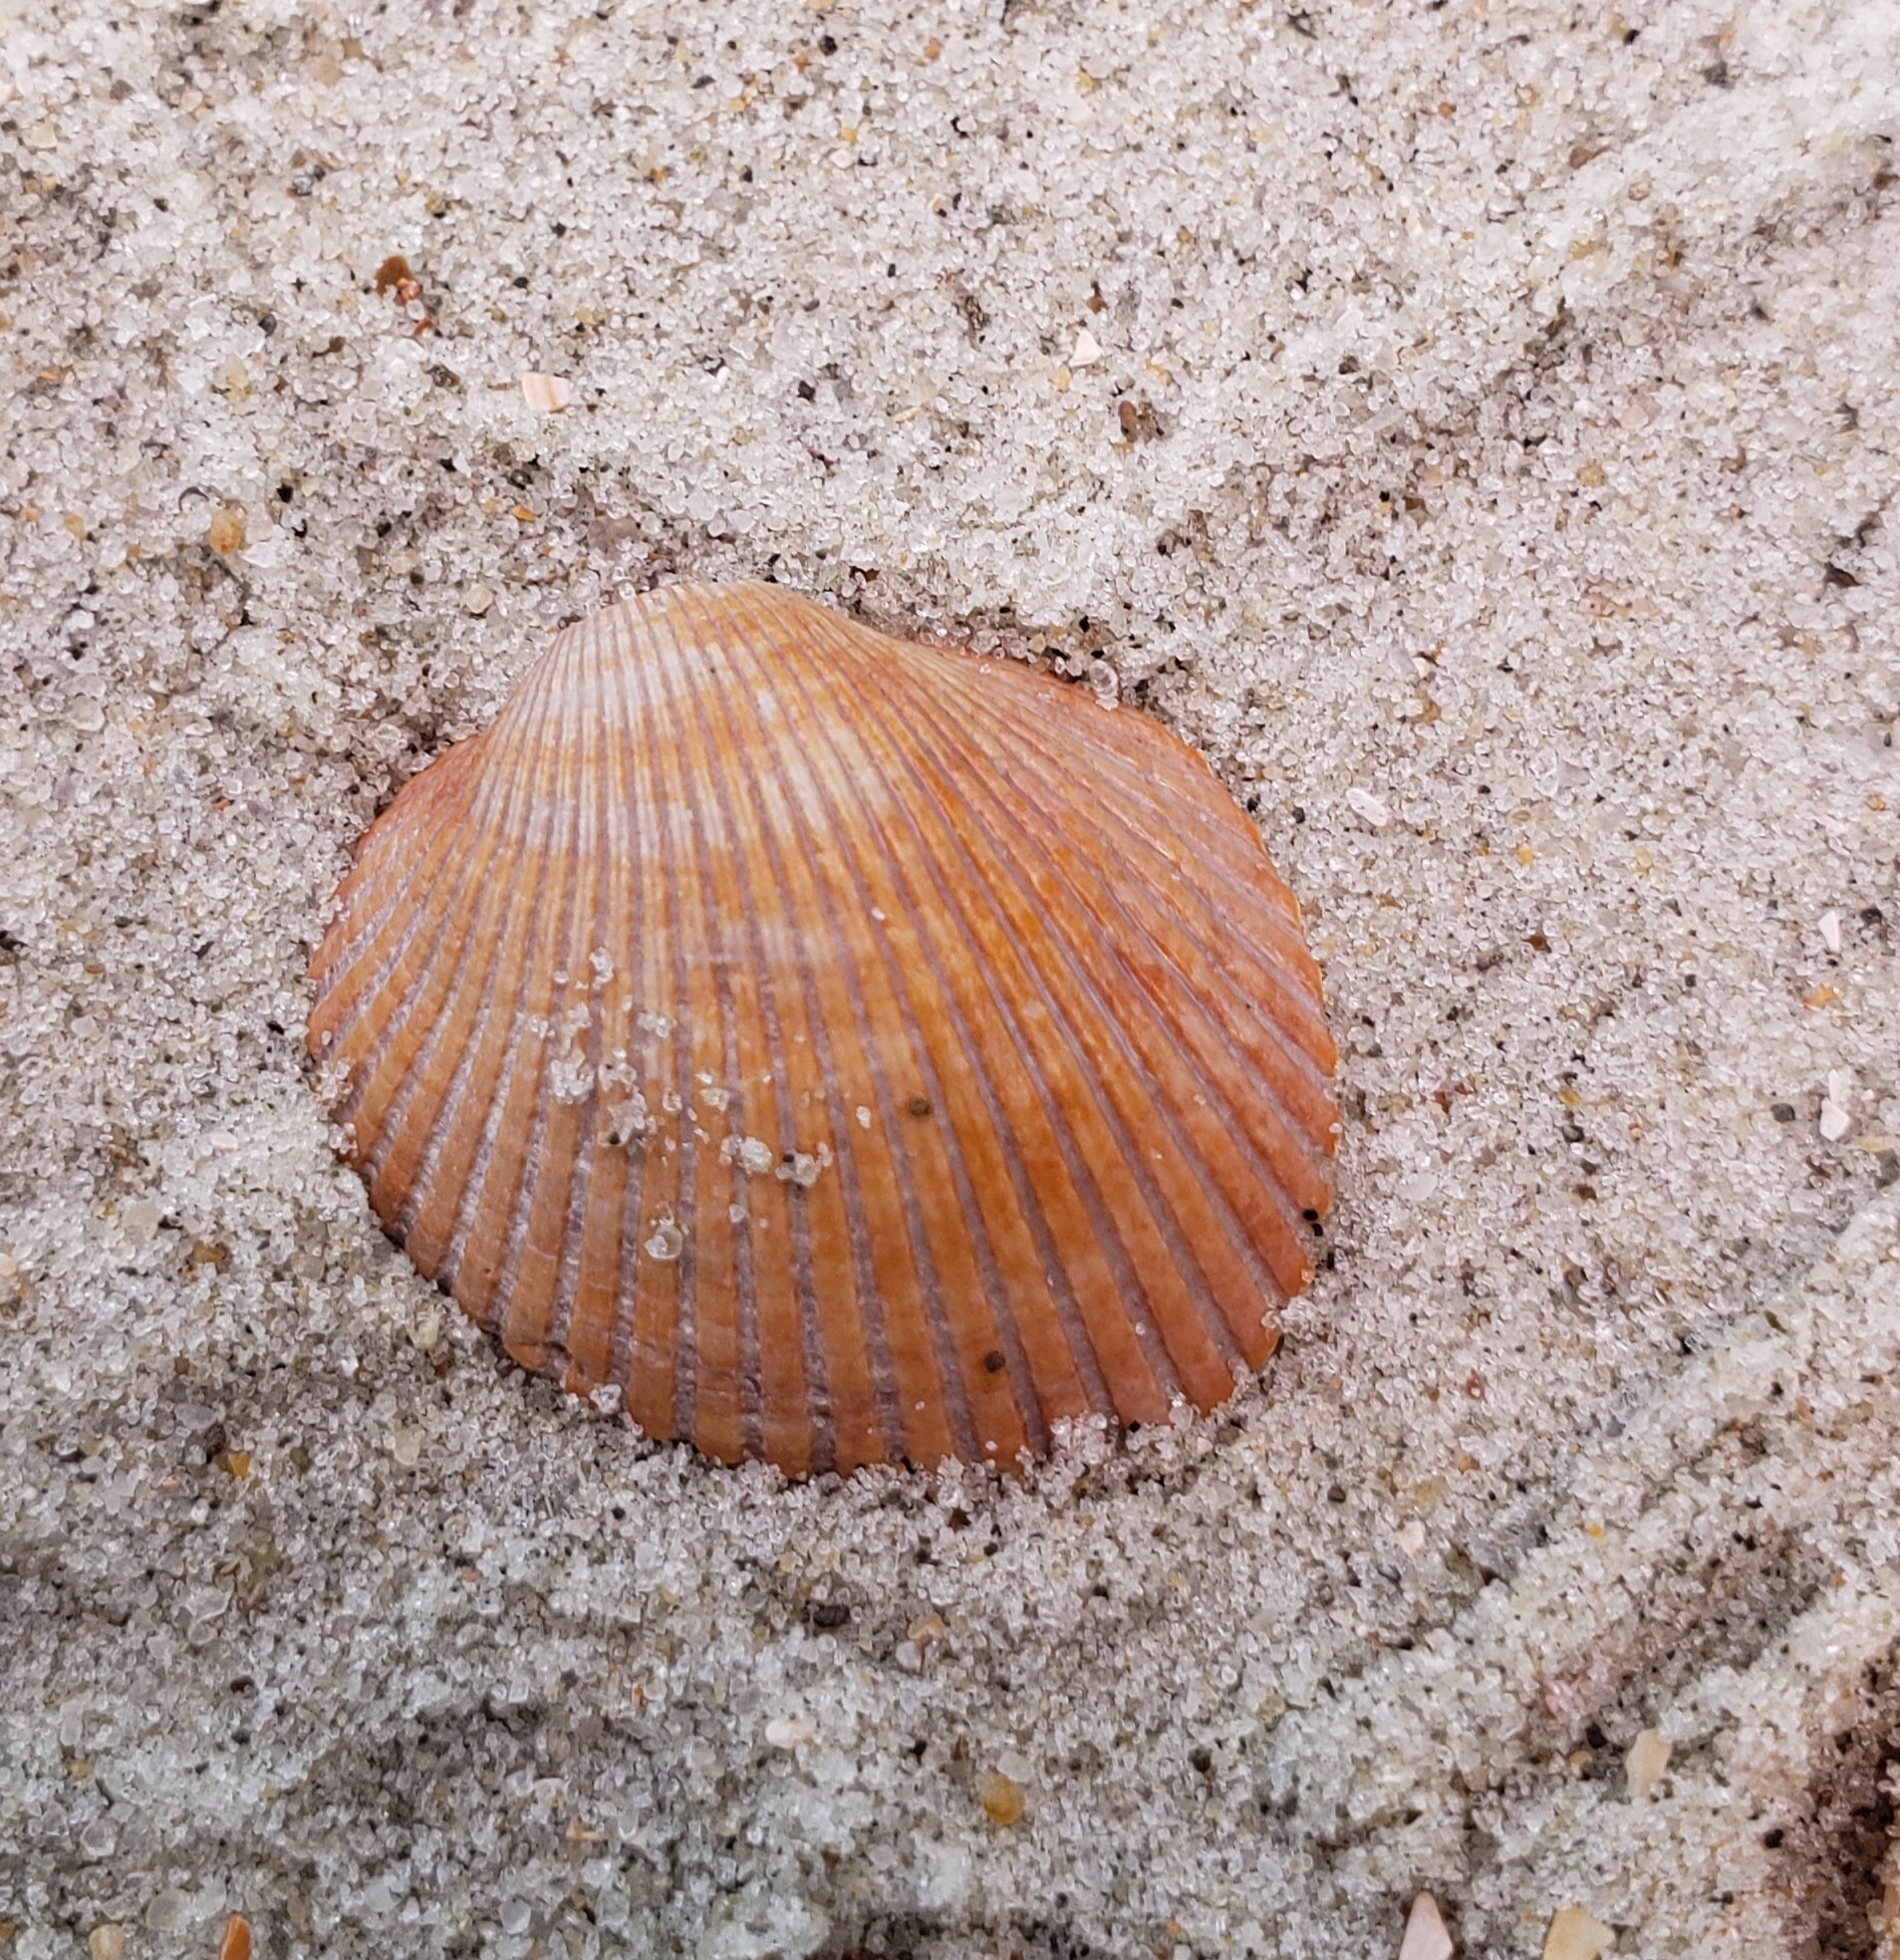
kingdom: Animalia
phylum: Mollusca
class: Bivalvia
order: Arcida
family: Arcidae
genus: Lunarca
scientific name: Lunarca ovalis
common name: Blood ark
